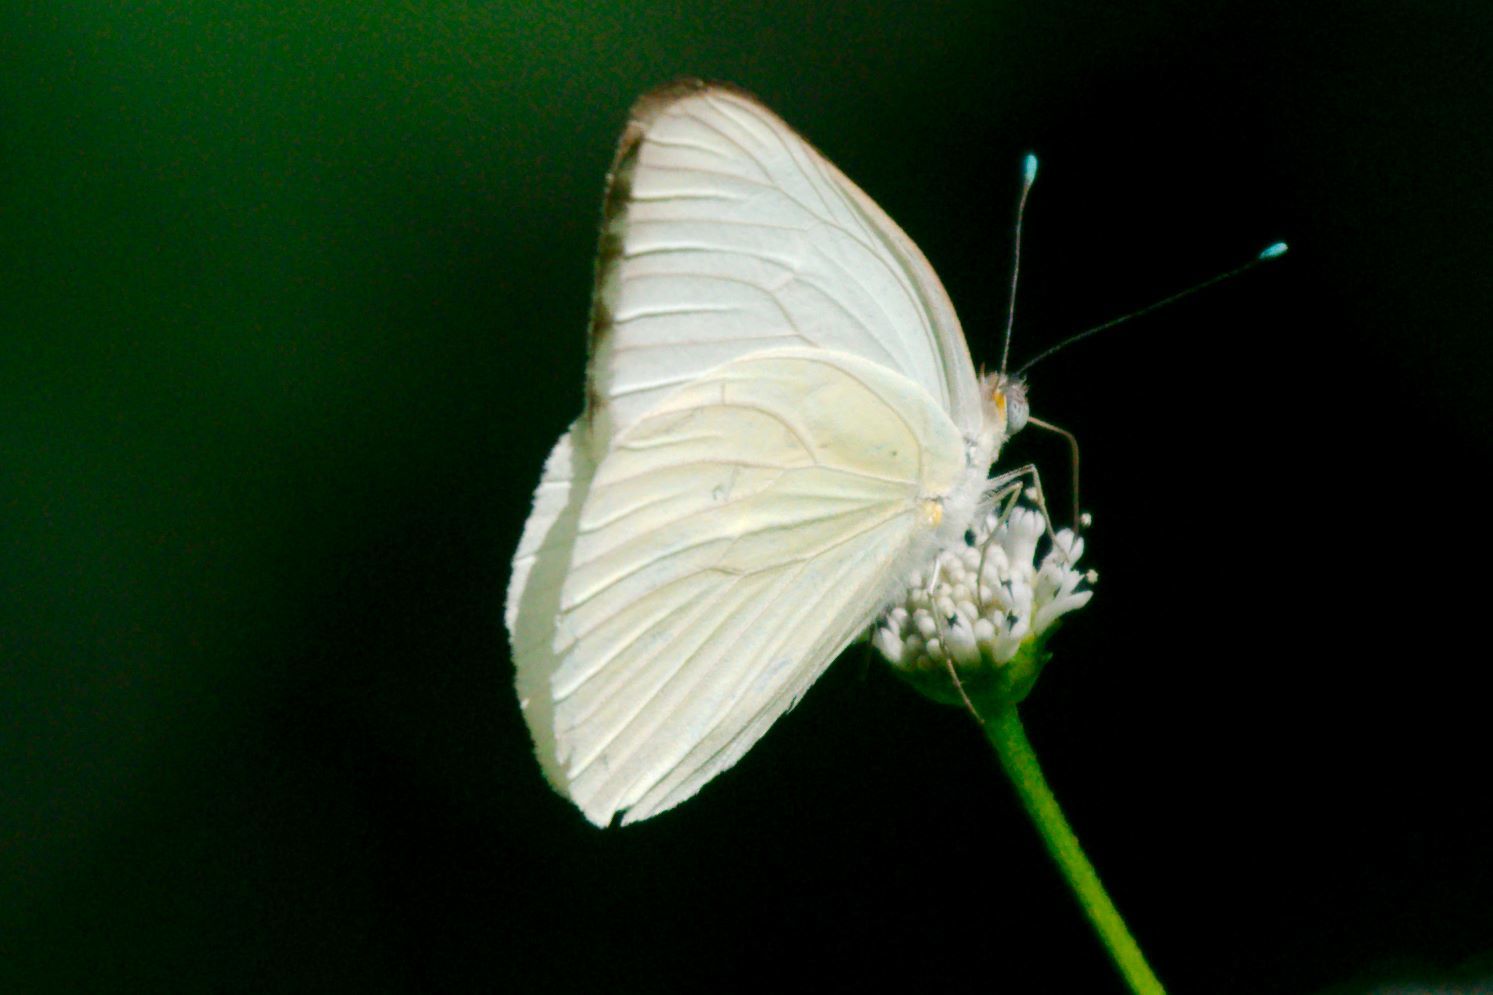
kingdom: Animalia
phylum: Arthropoda
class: Insecta
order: Lepidoptera
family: Pieridae
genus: Ascia
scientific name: Ascia monuste
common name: Great southern white
